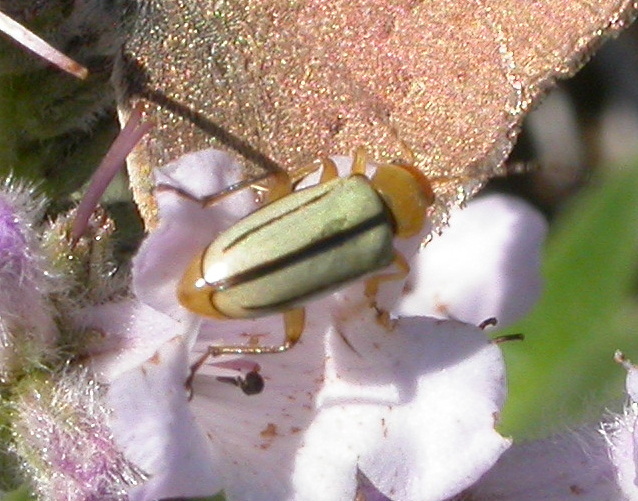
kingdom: Animalia
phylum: Arthropoda
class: Insecta
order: Coleoptera
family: Chrysomelidae
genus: Triarius
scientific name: Triarius melanolomatus
